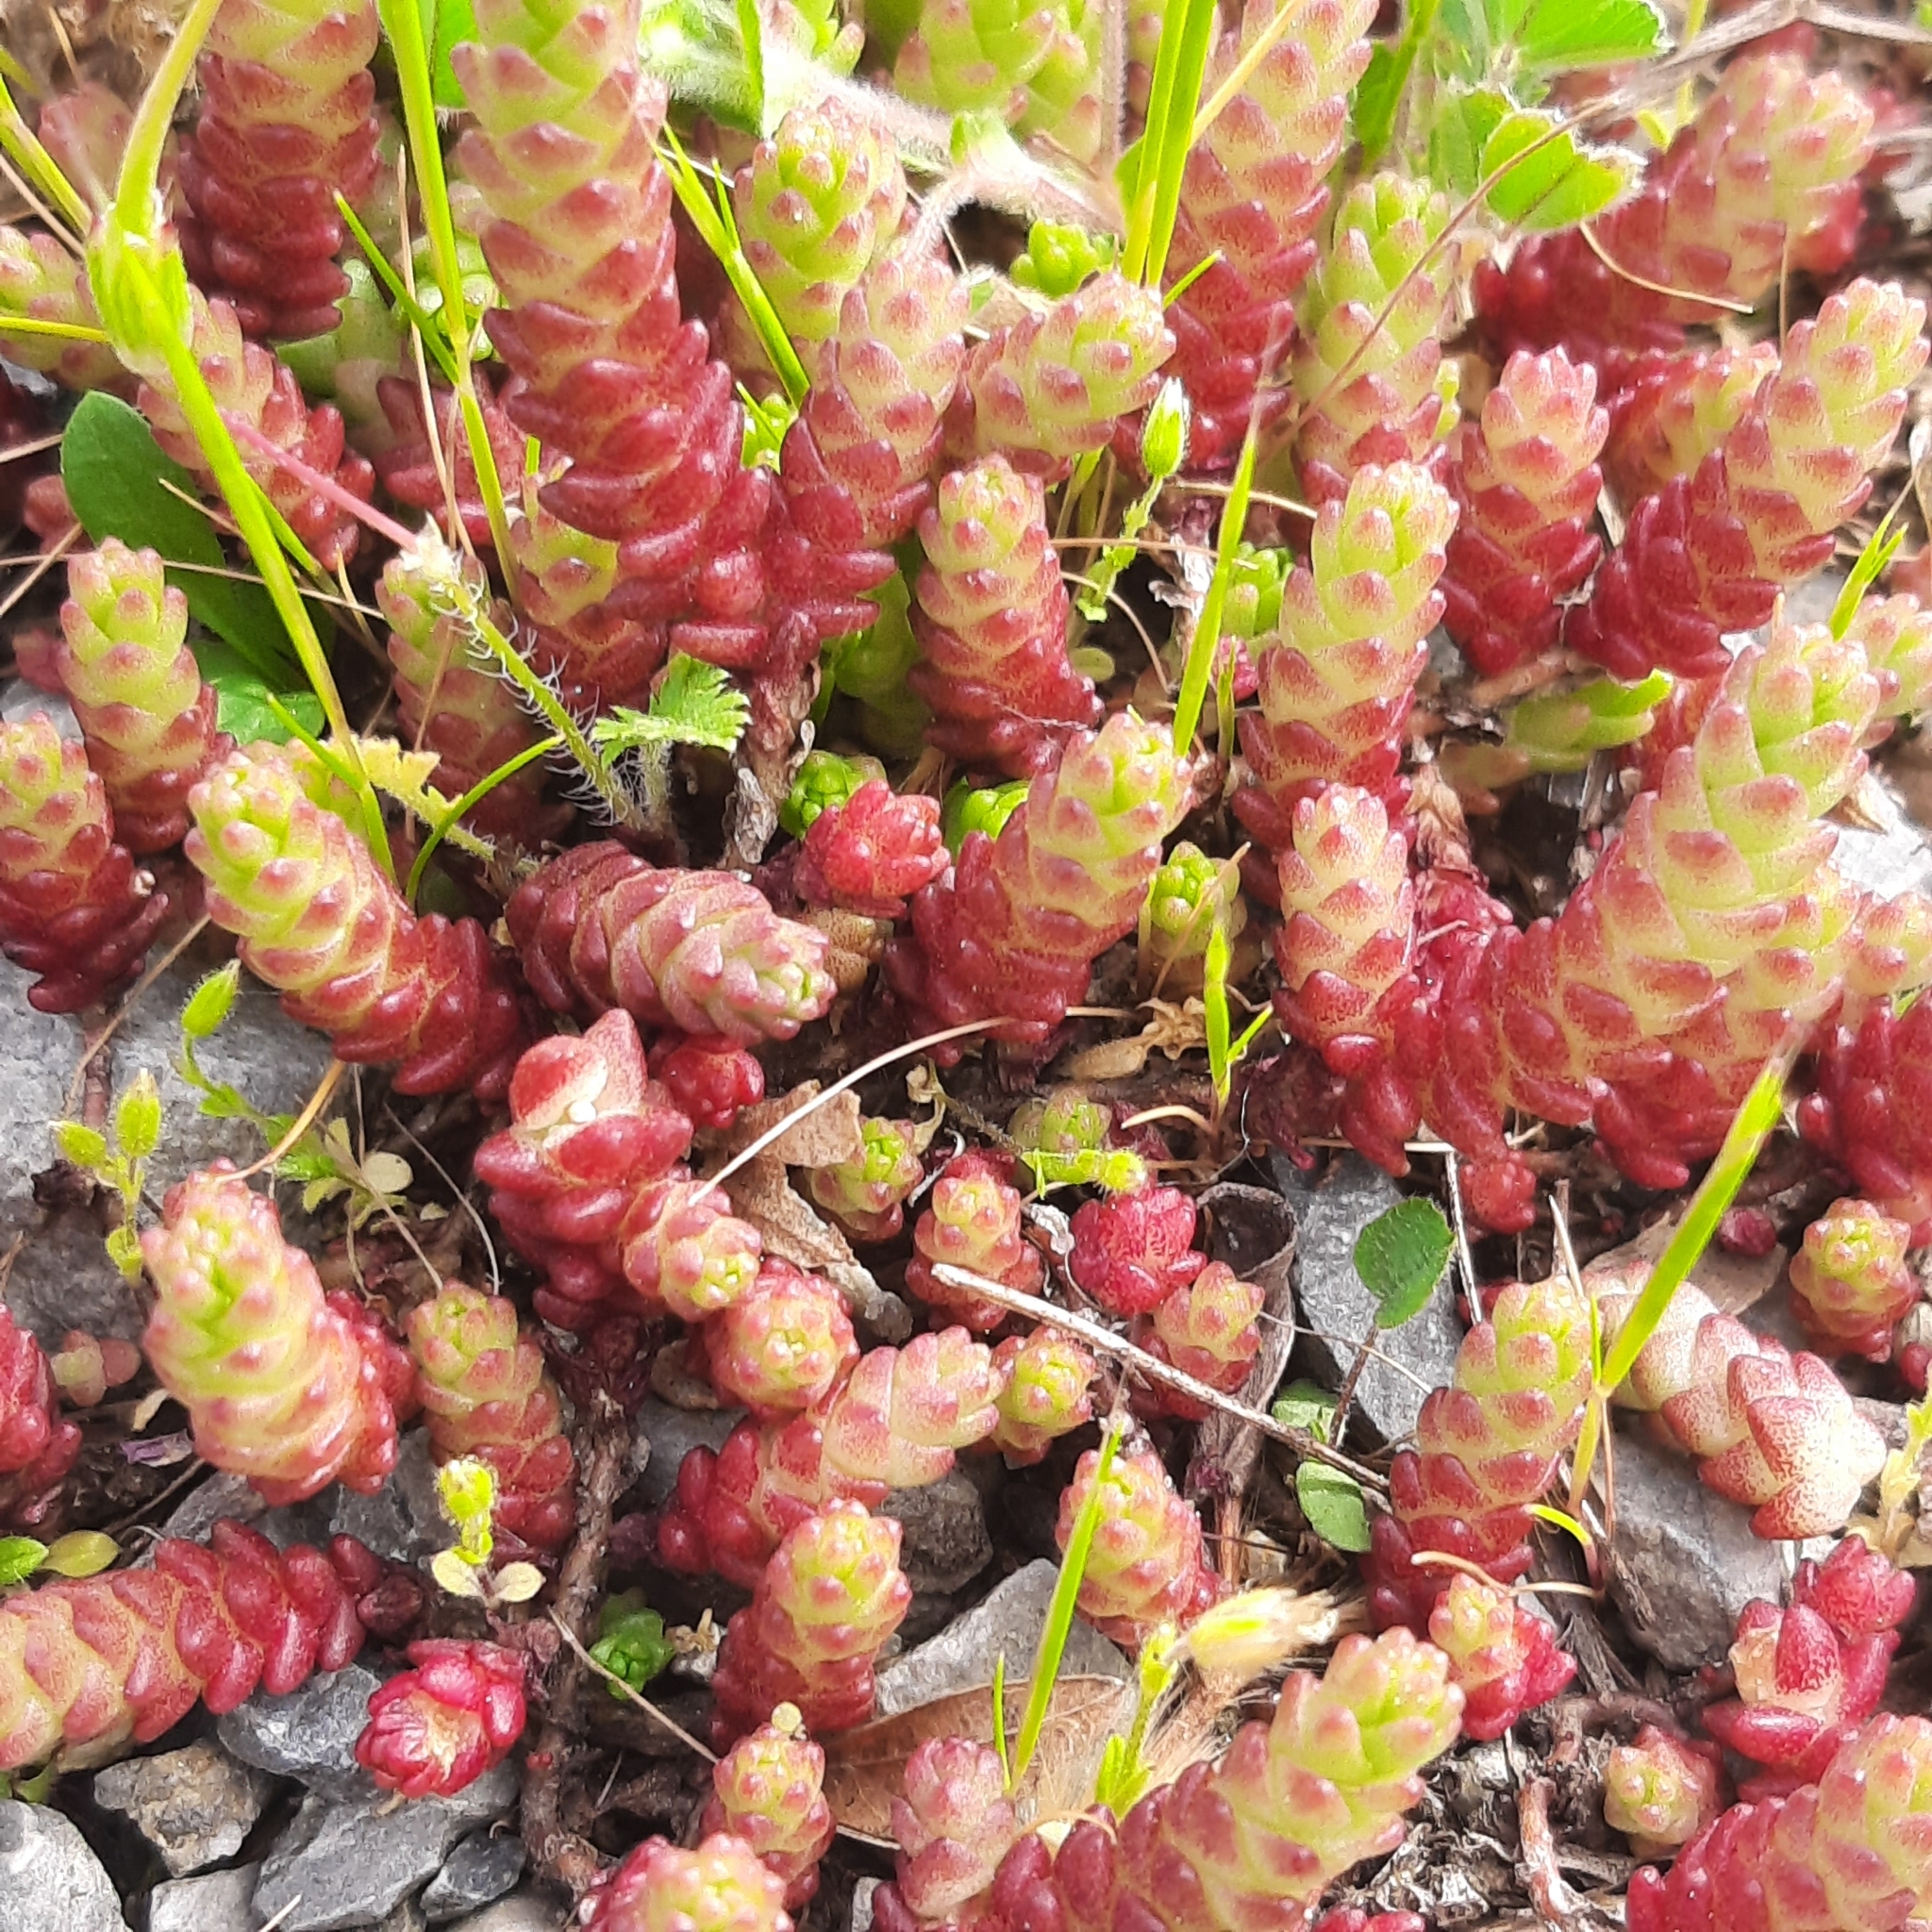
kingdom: Plantae
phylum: Tracheophyta
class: Magnoliopsida
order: Saxifragales
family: Crassulaceae
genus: Sedum
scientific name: Sedum acre
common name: Biting stonecrop
